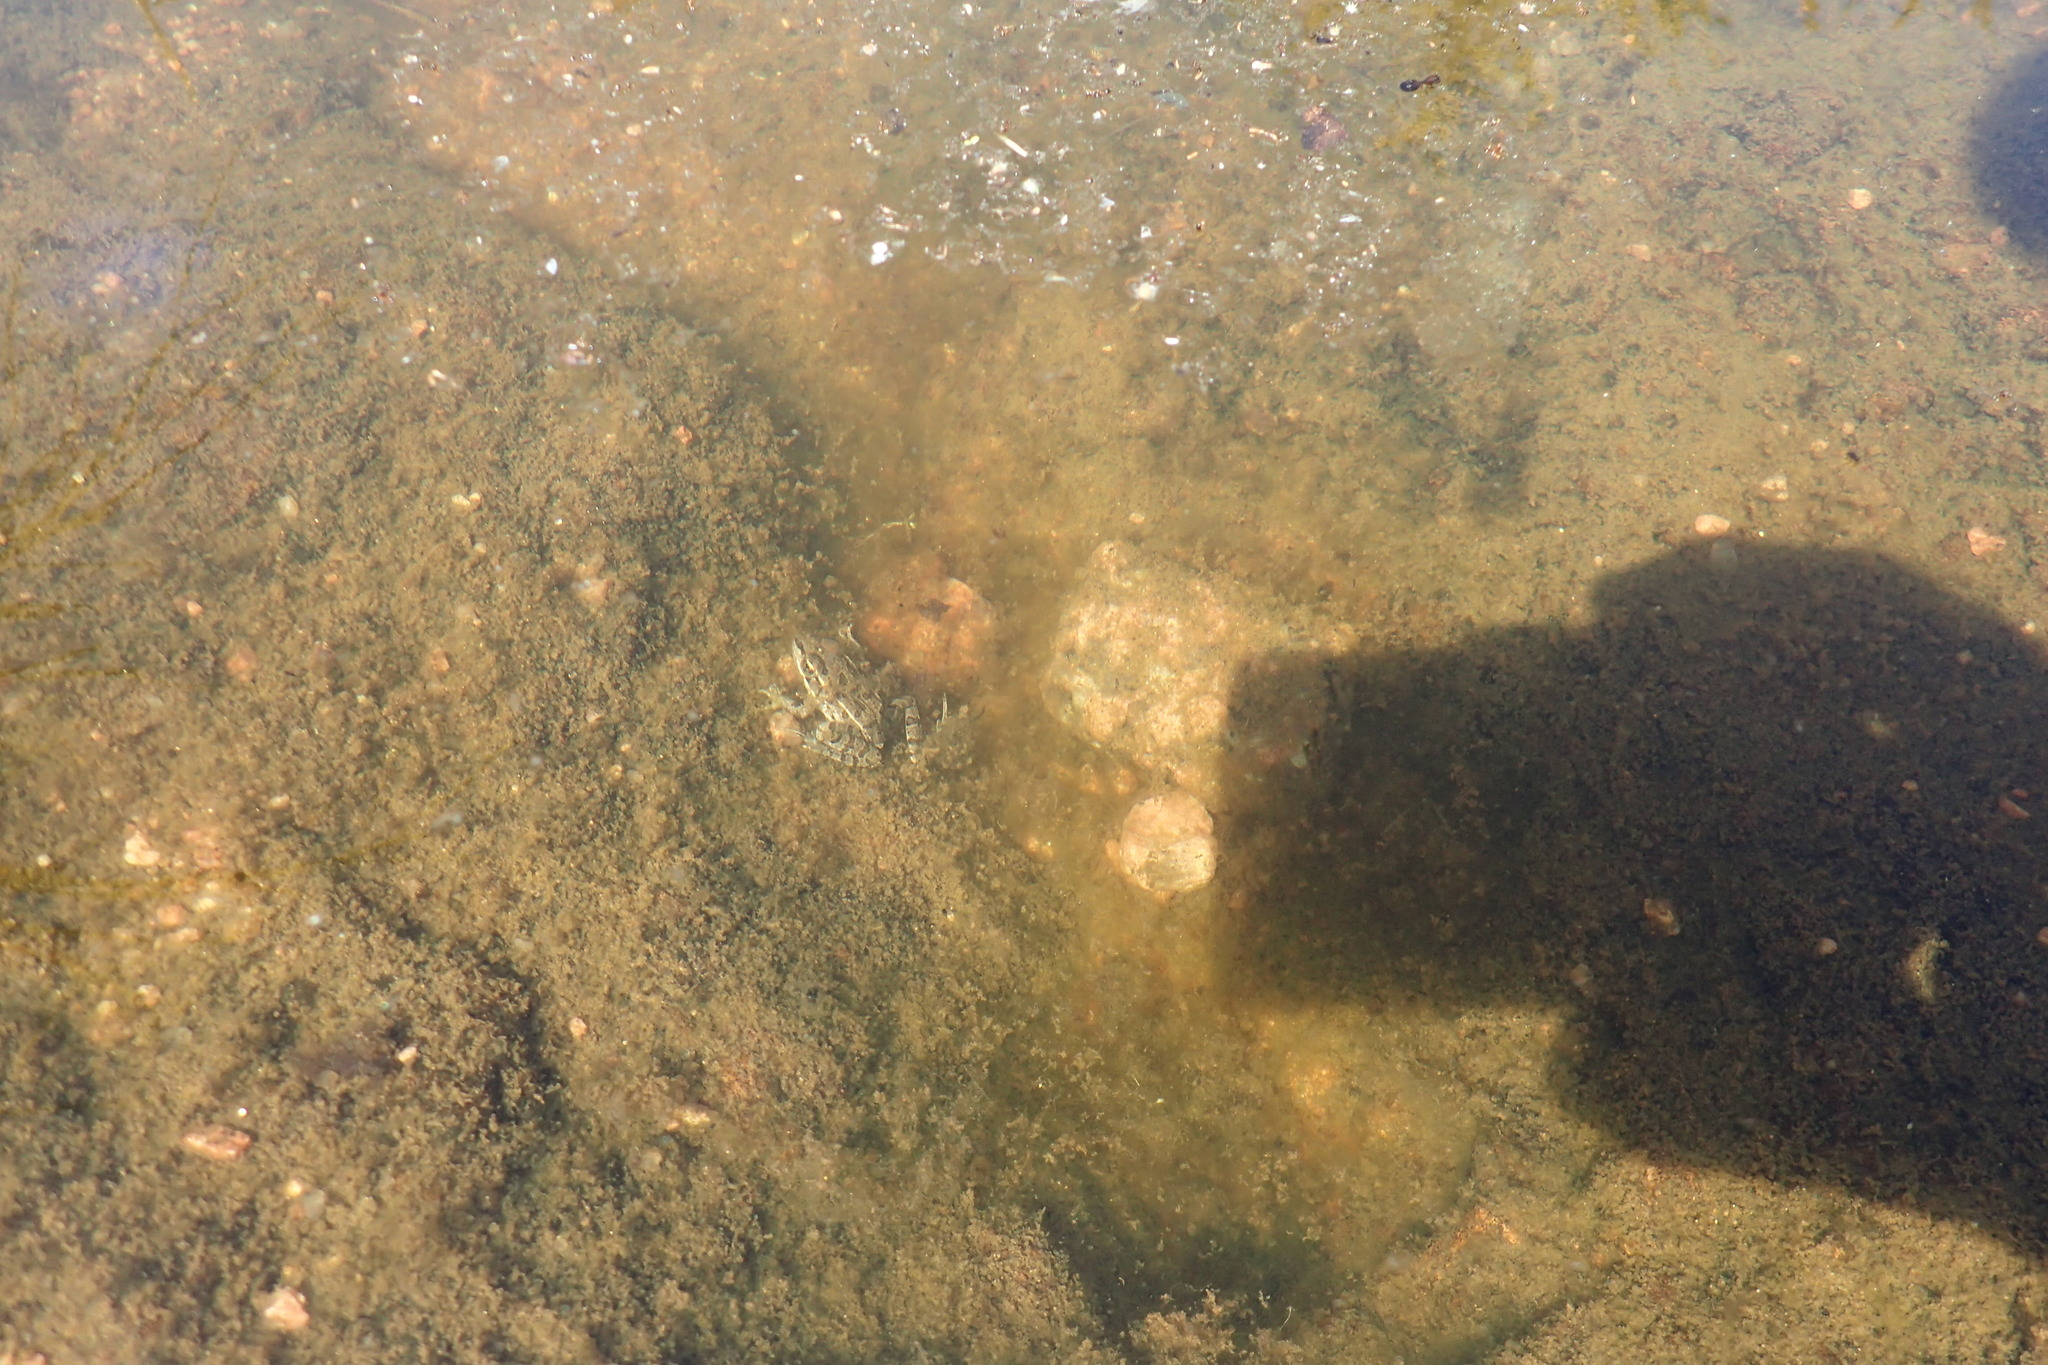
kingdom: Animalia
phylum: Chordata
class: Amphibia
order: Anura
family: Ranidae
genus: Lithobates
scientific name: Lithobates berlandieri
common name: Rio grande leopard frog
